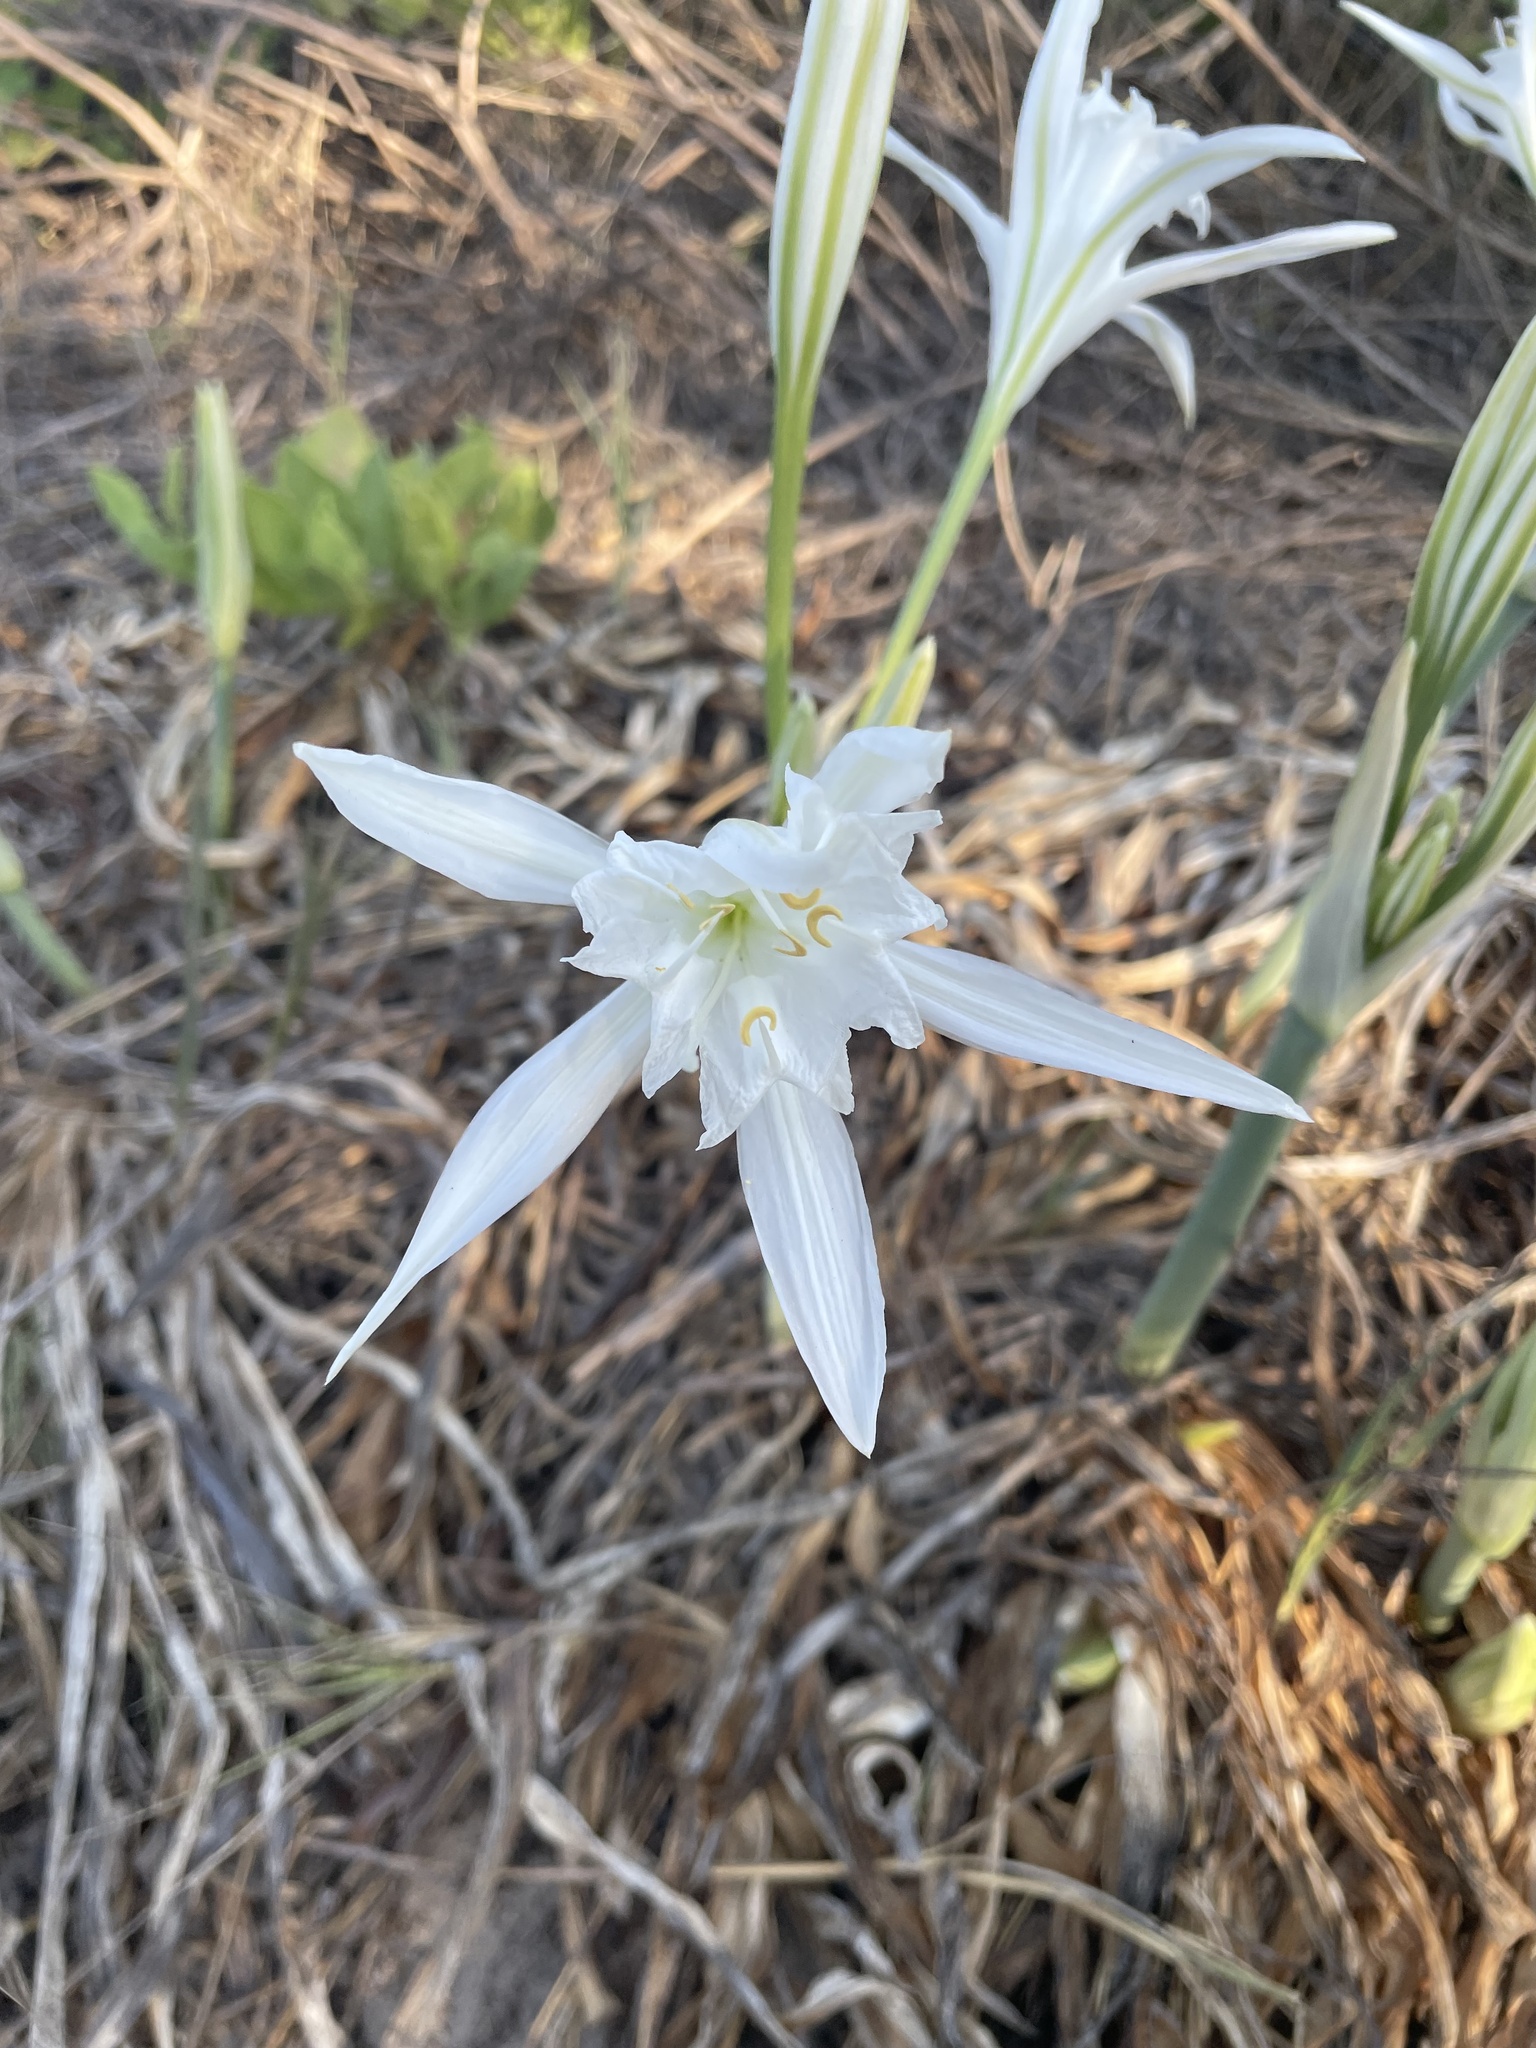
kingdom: Plantae
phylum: Tracheophyta
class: Liliopsida
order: Asparagales
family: Amaryllidaceae
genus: Pancratium
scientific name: Pancratium maritimum
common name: Sea-daffodil
